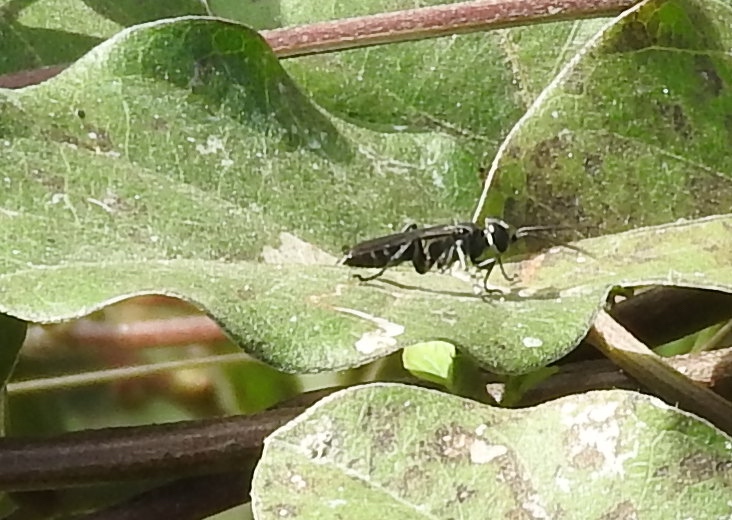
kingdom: Animalia
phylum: Arthropoda
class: Insecta
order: Hymenoptera
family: Crabronidae
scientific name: Crabronidae
